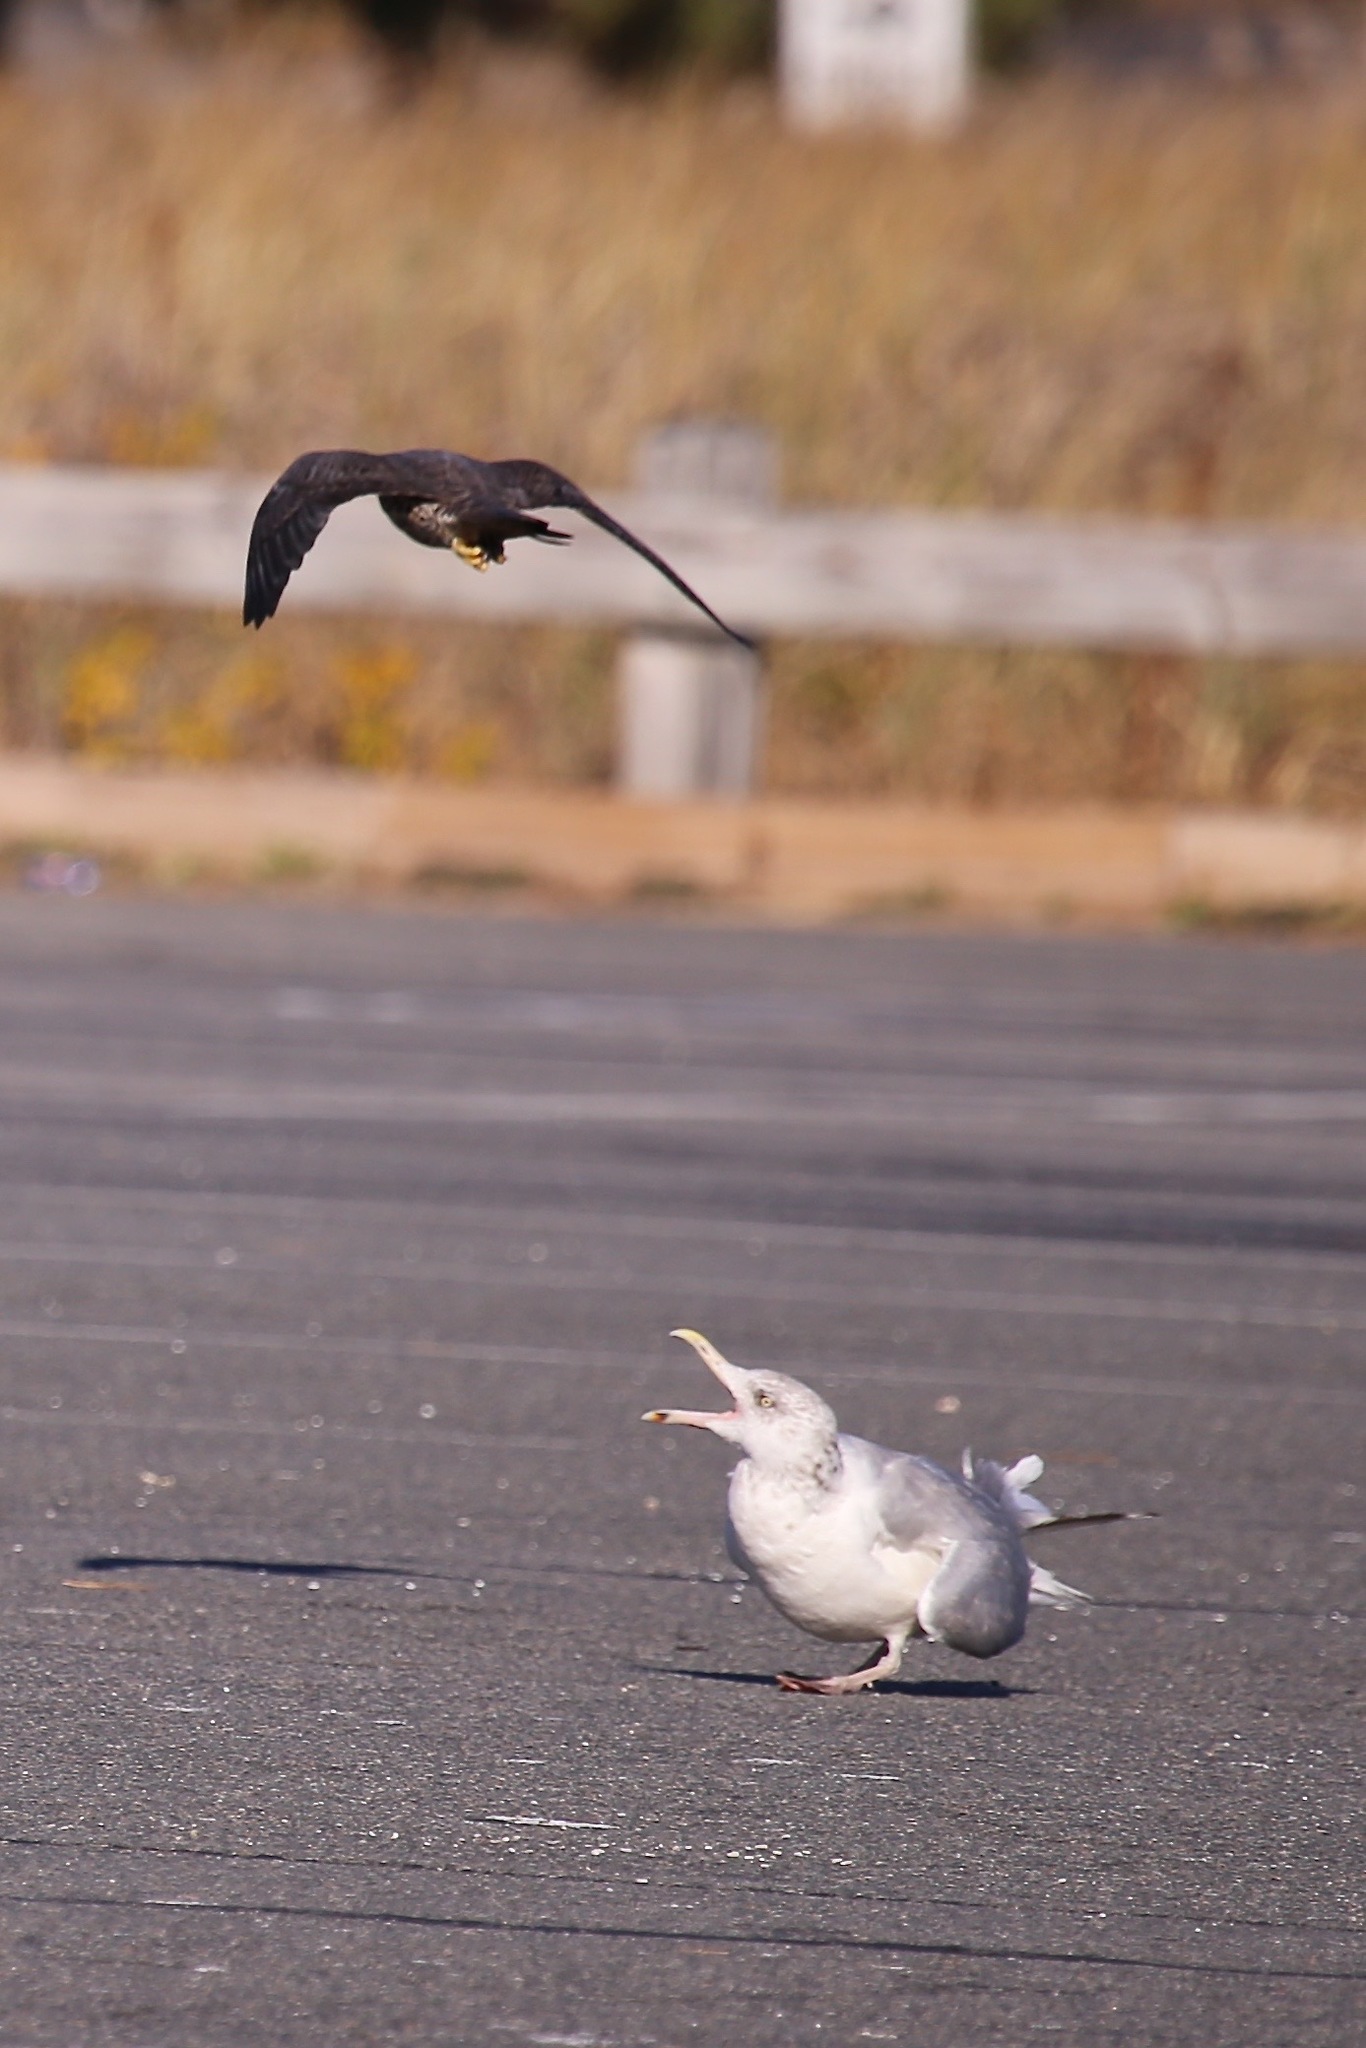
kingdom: Animalia
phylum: Chordata
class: Aves
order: Falconiformes
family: Falconidae
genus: Falco
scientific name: Falco peregrinus
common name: Peregrine falcon
